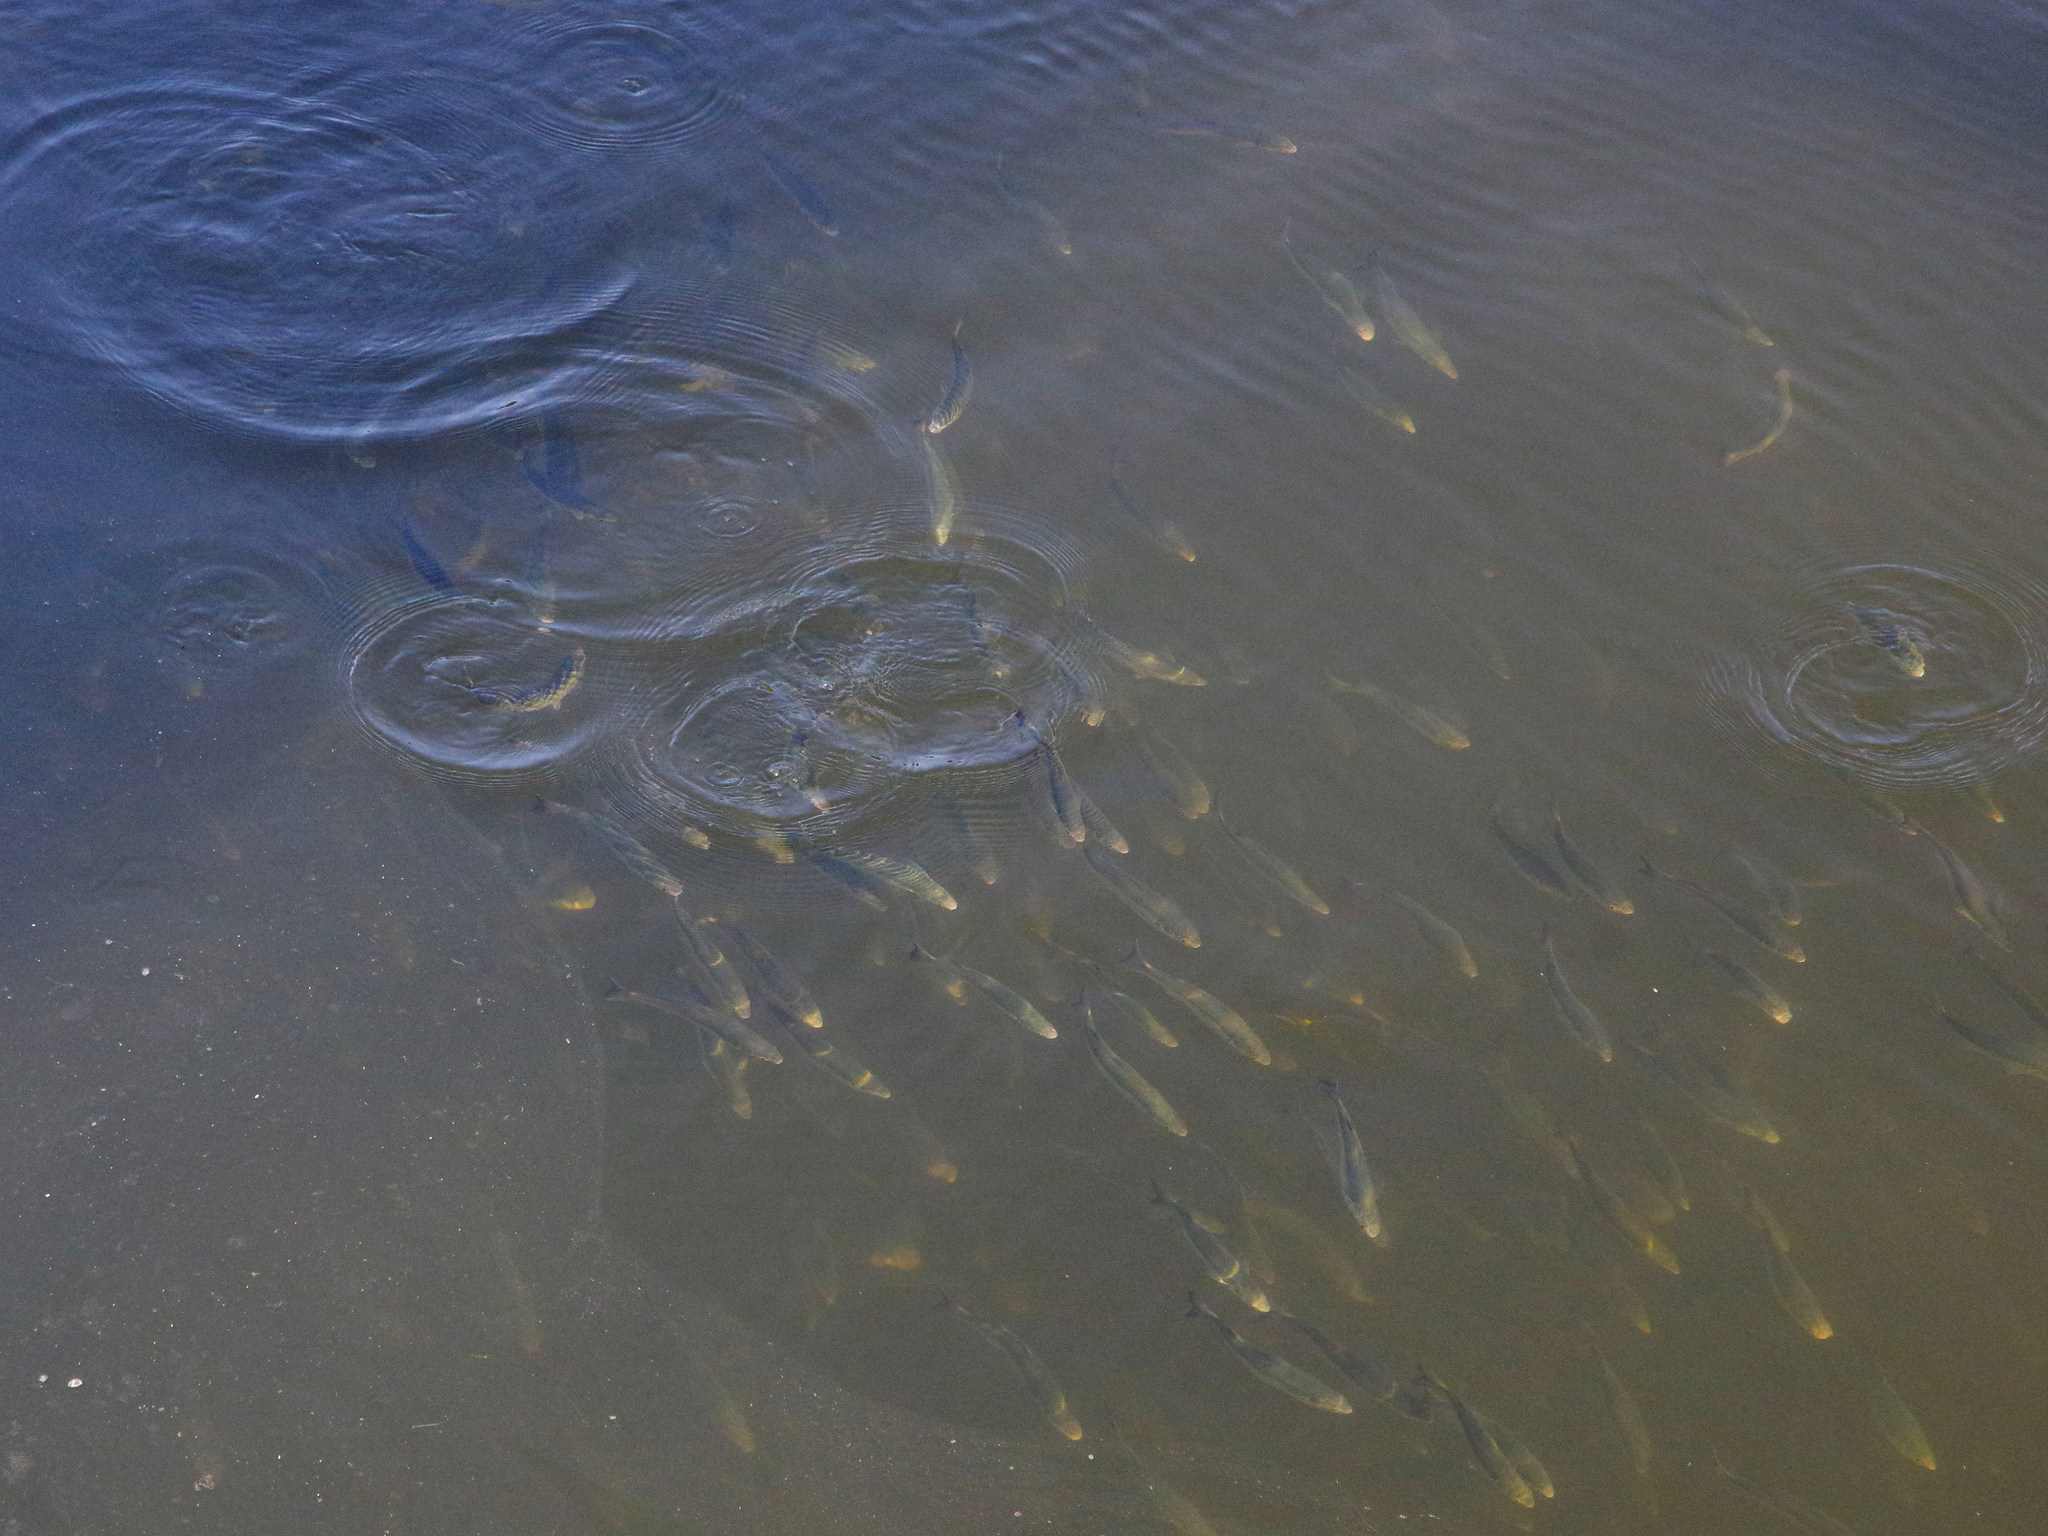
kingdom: Animalia
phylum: Chordata
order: Mugiliformes
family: Mugilidae
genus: Aldrichetta
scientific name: Aldrichetta forsteri
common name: Yellow-eye mullet
